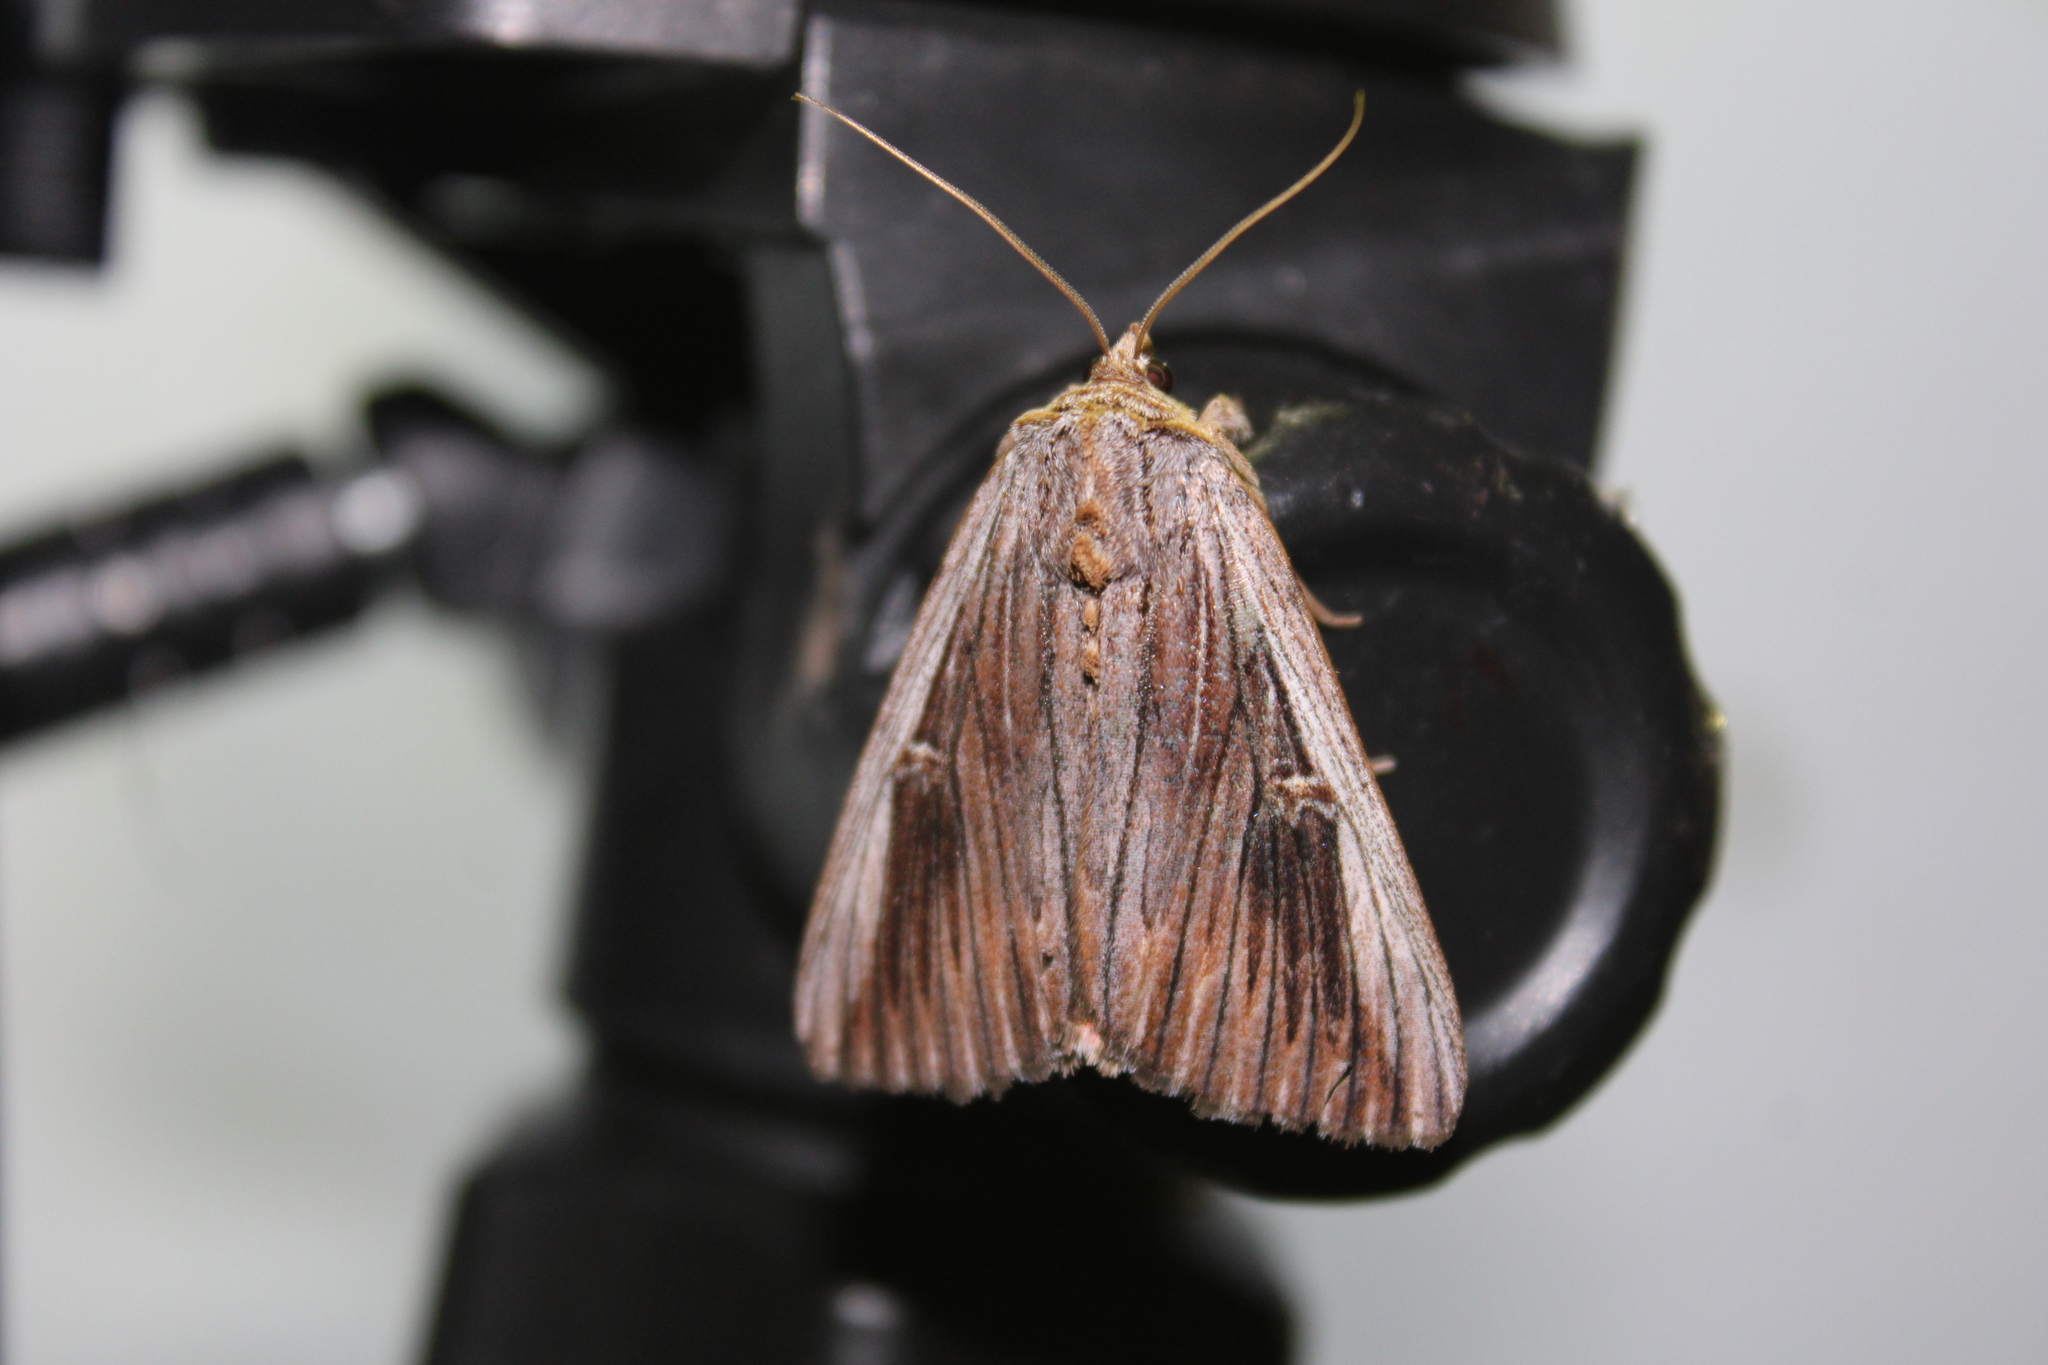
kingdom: Animalia
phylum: Arthropoda
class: Insecta
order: Lepidoptera
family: Erebidae
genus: Catocala
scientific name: Catocala herodias
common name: Pine barrens underwing
